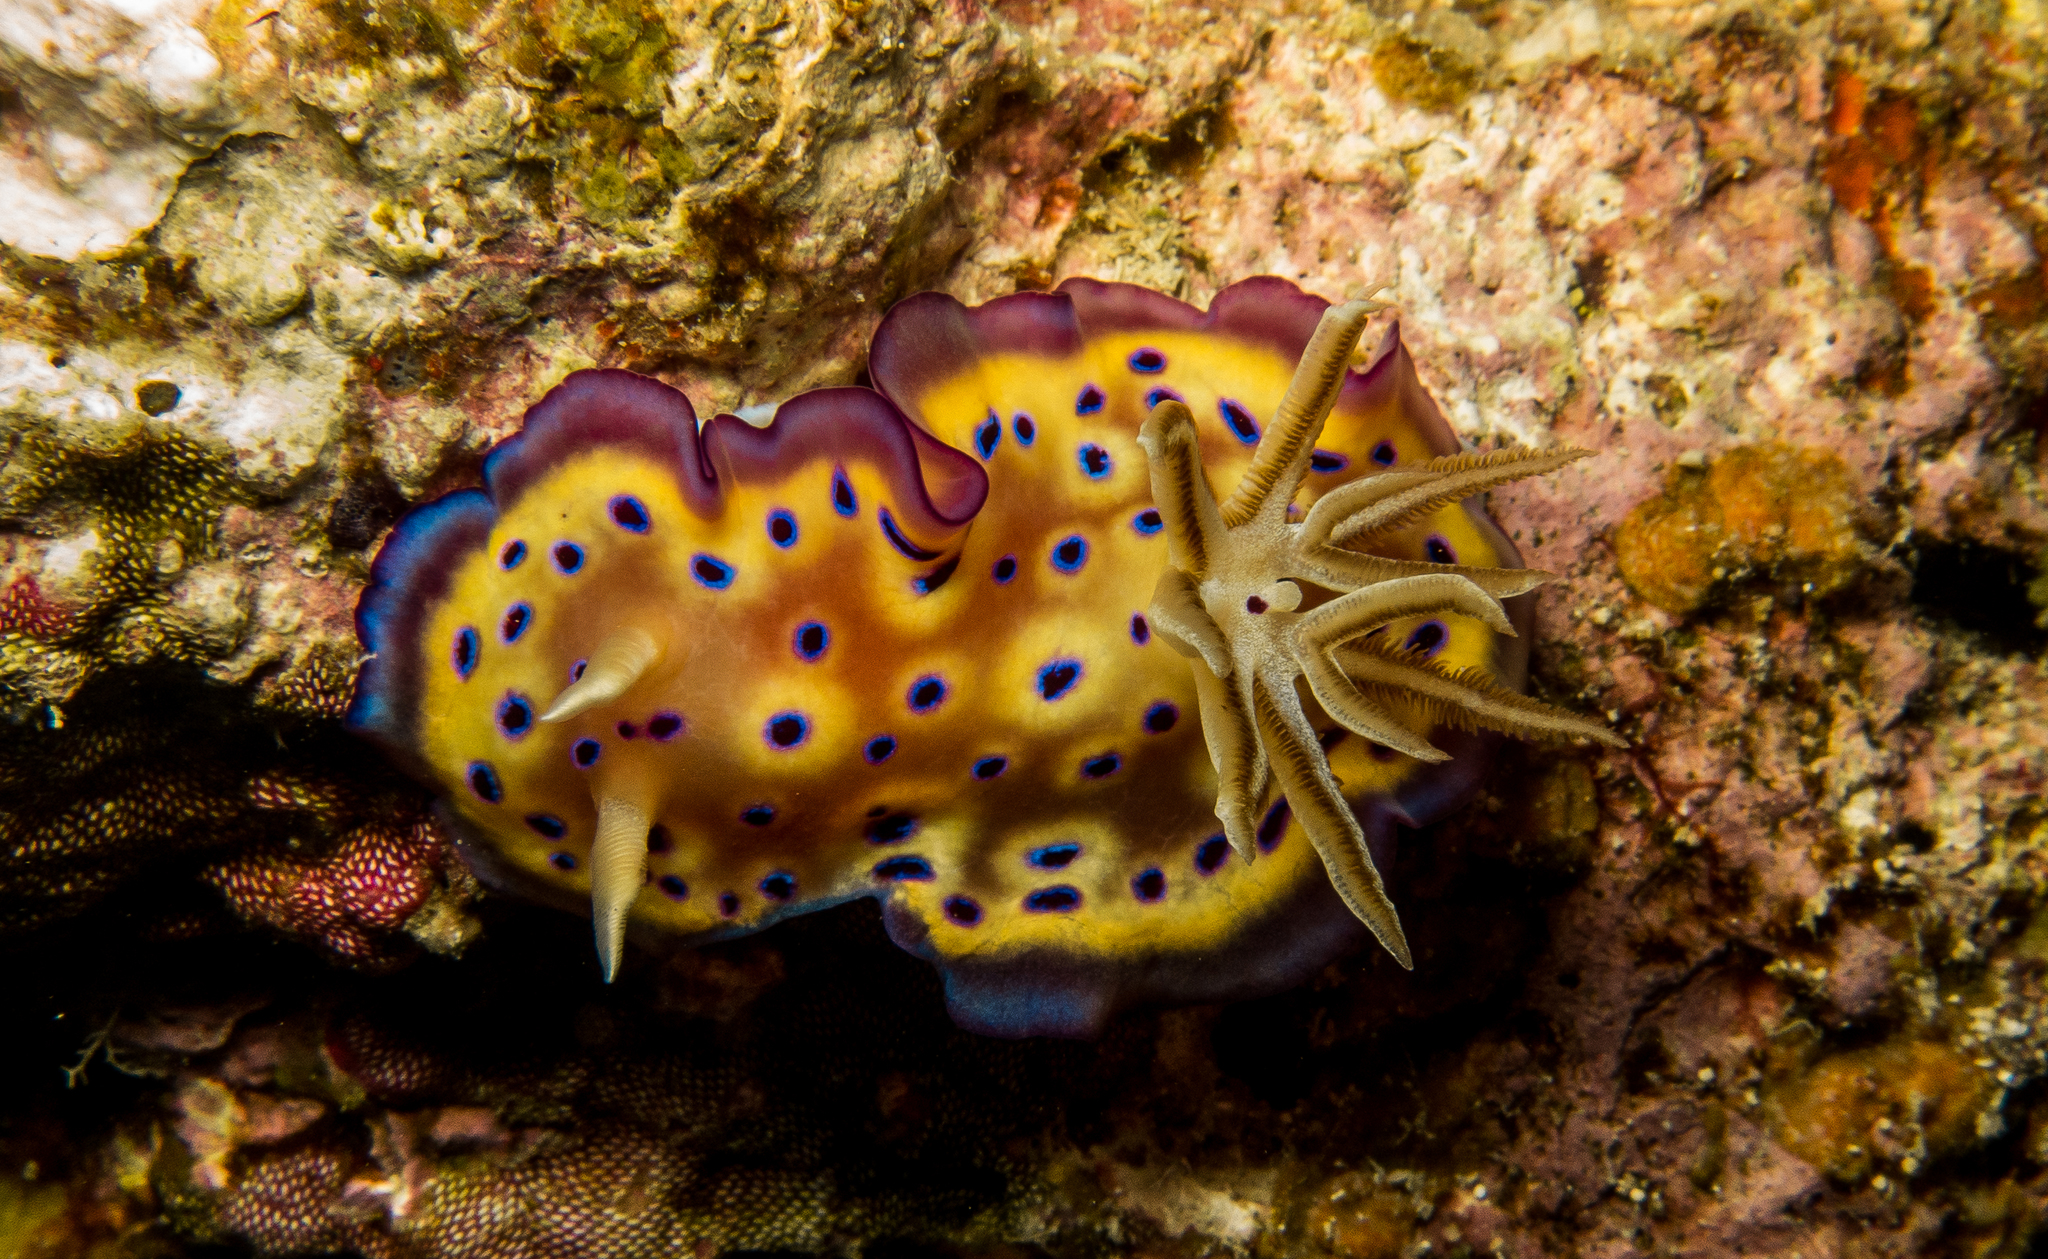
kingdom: Animalia
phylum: Mollusca
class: Gastropoda
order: Nudibranchia
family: Chromodorididae
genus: Goniobranchus
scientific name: Goniobranchus kuniei
